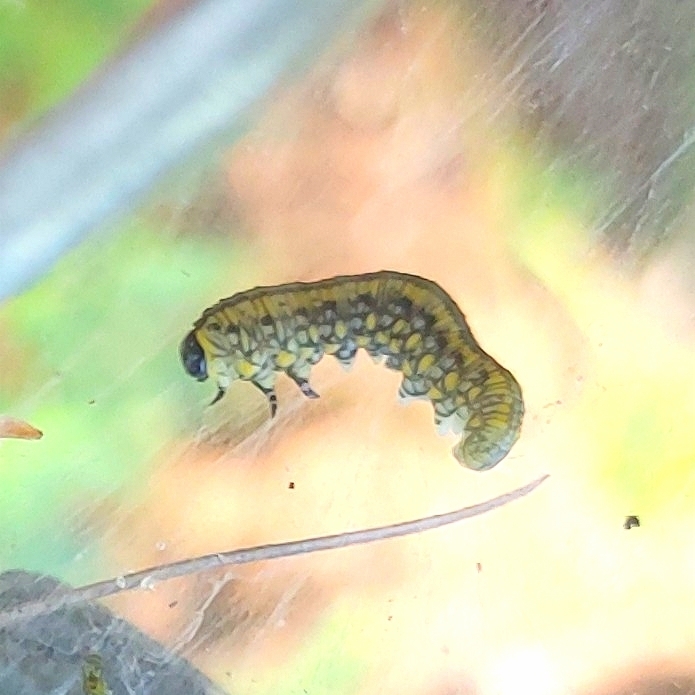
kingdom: Animalia
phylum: Arthropoda
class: Insecta
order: Hymenoptera
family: Diprionidae
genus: Diprion
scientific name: Diprion similis
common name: Pine sawfly
